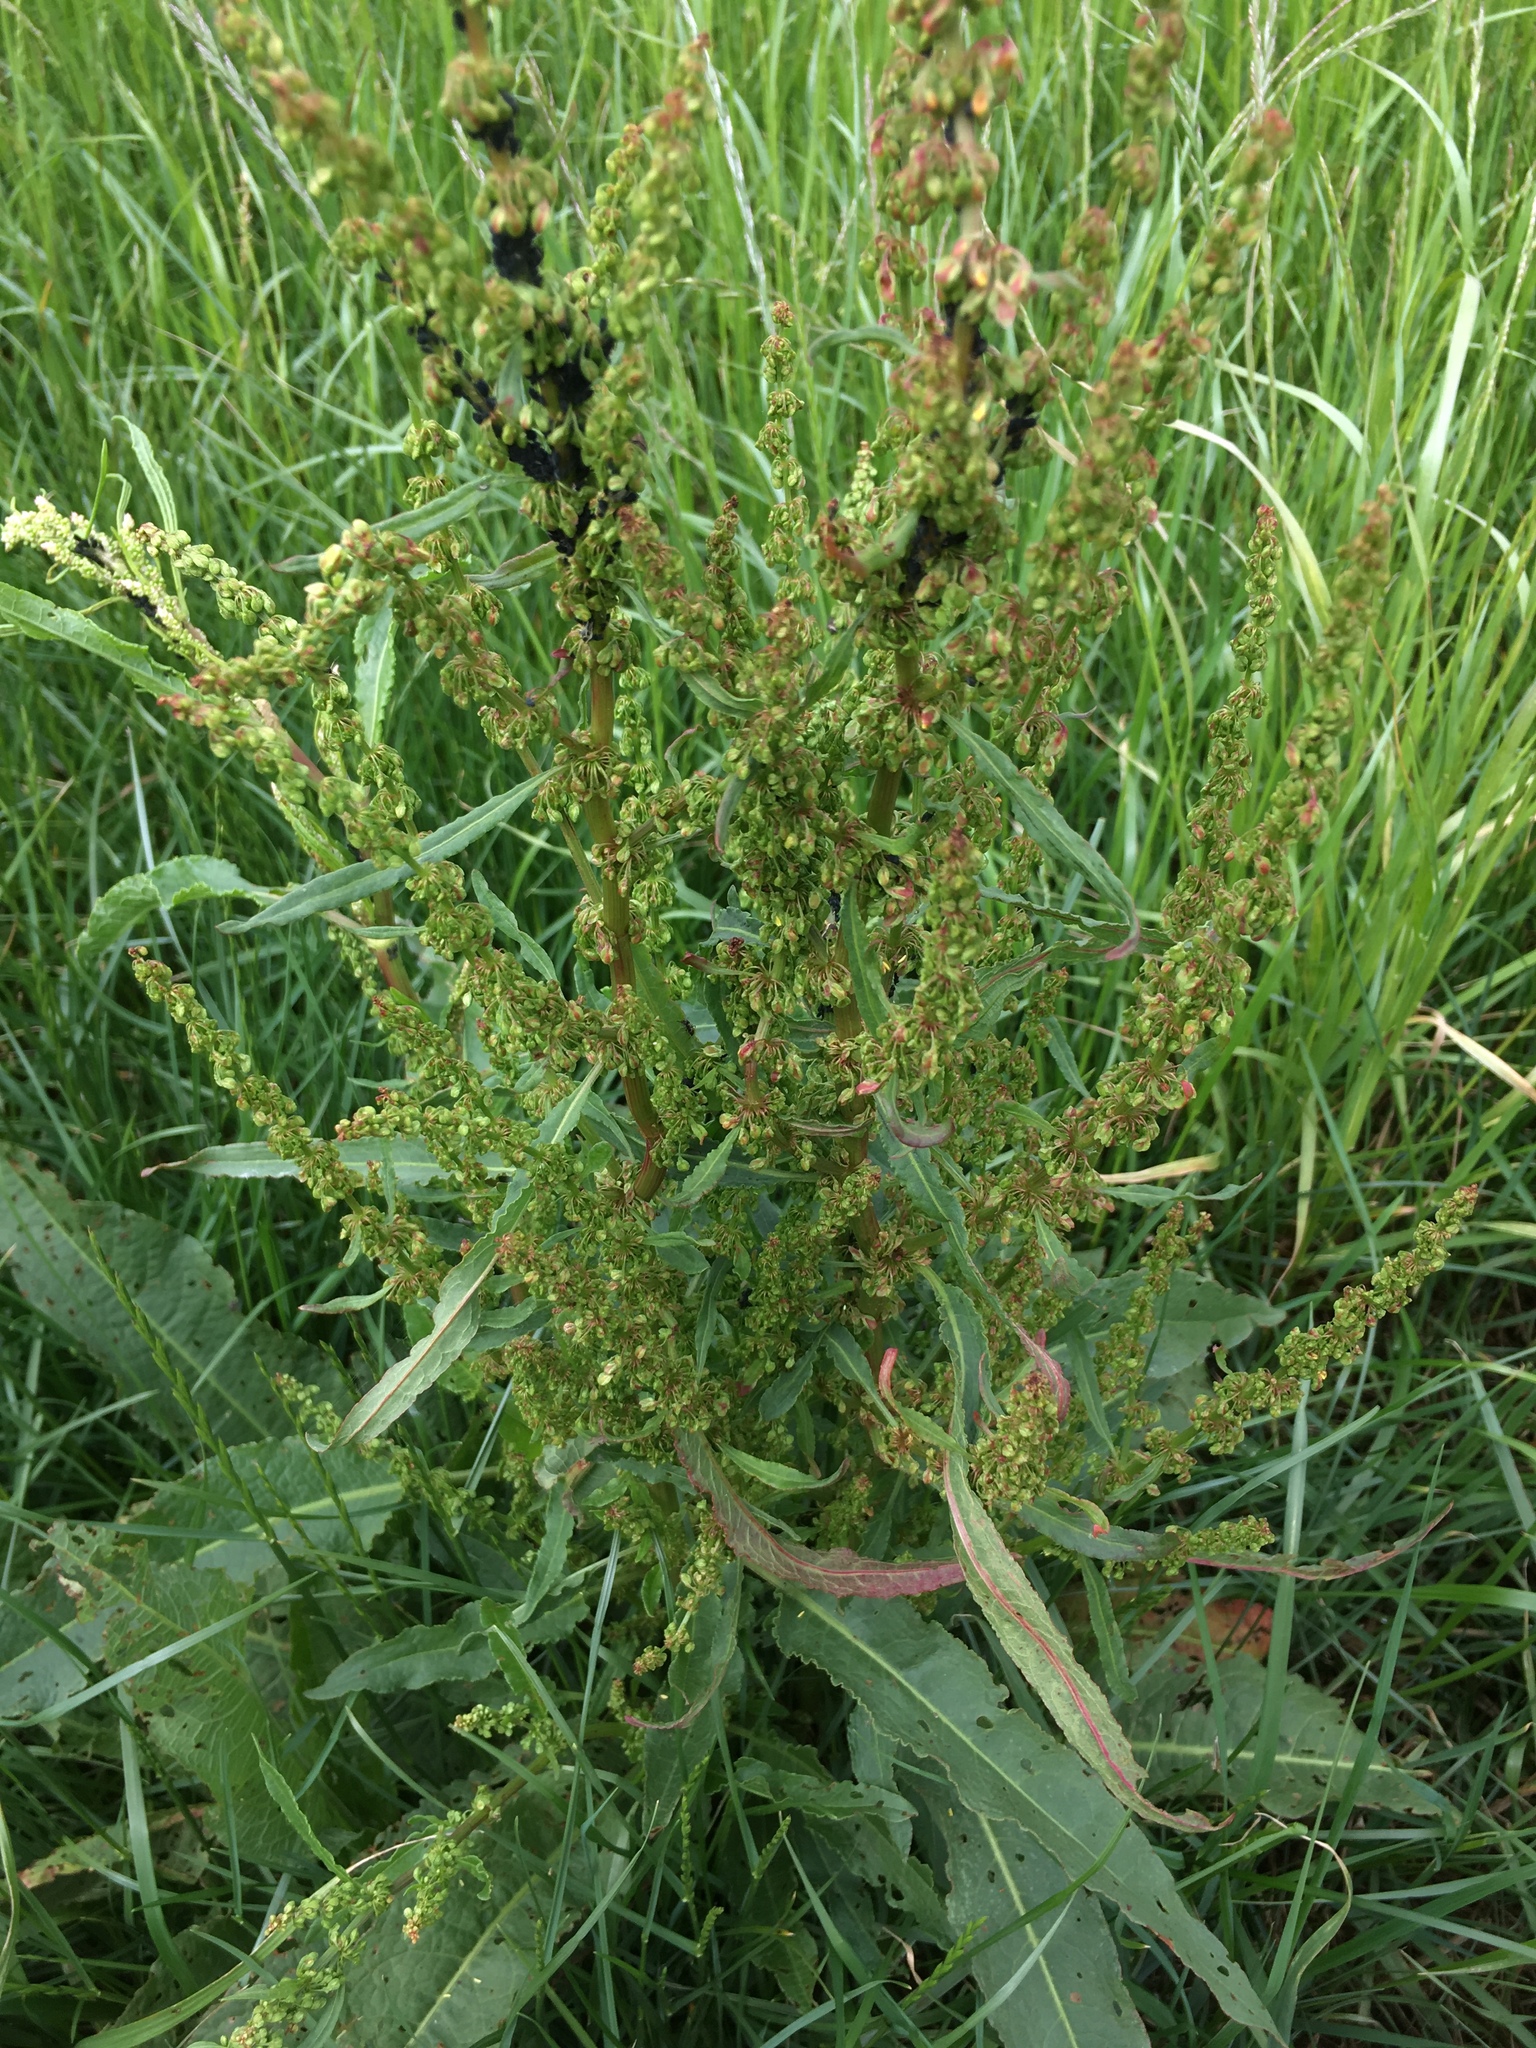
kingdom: Plantae
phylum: Tracheophyta
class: Magnoliopsida
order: Caryophyllales
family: Polygonaceae
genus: Rumex
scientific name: Rumex crispus
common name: Curled dock
